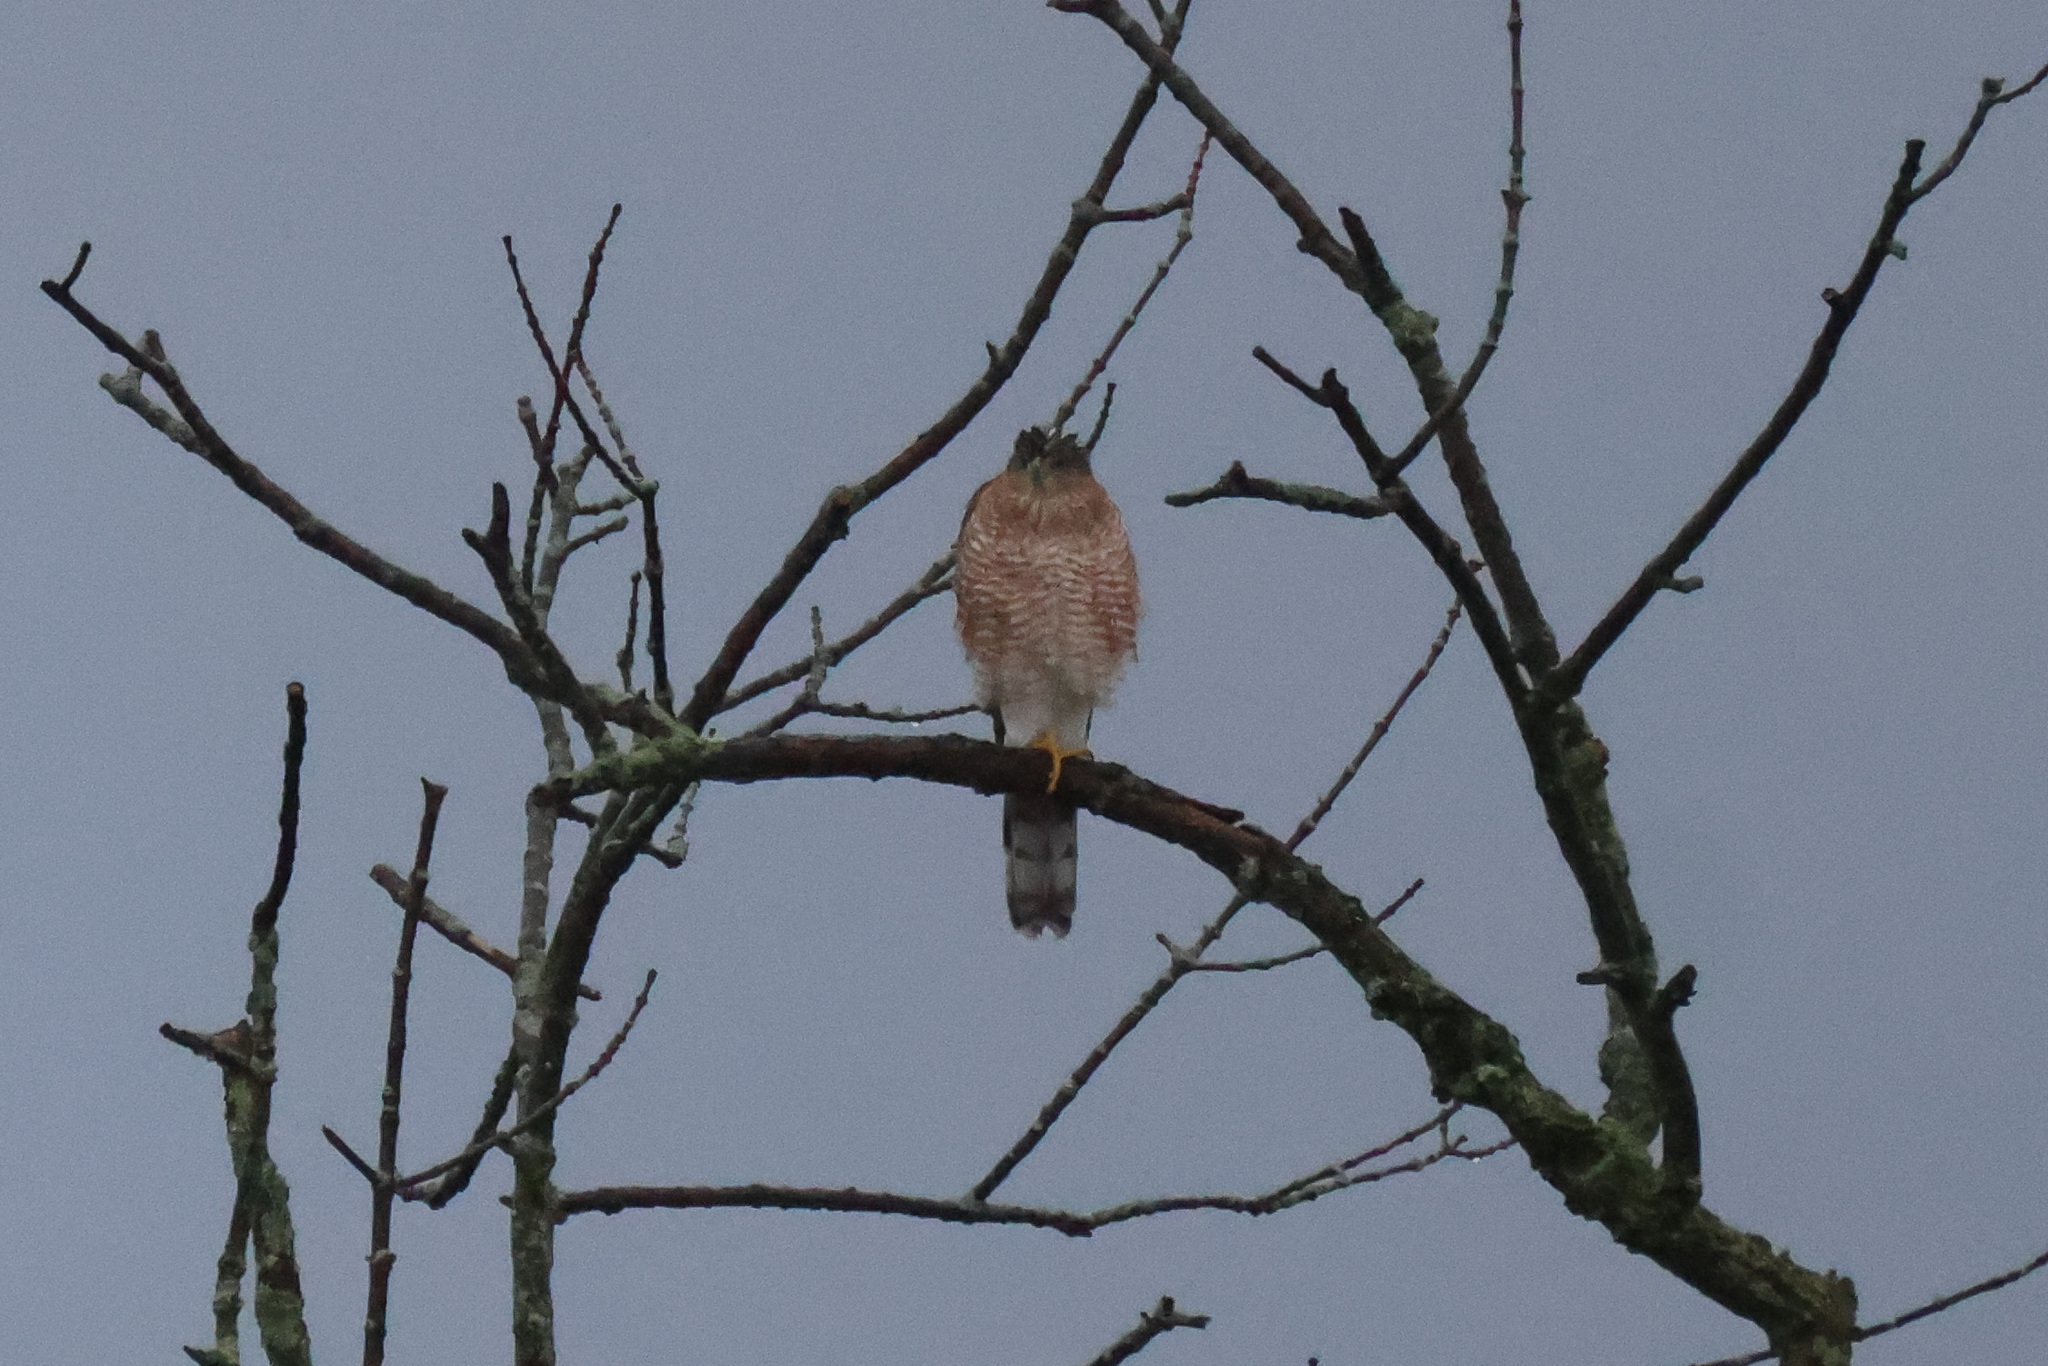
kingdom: Animalia
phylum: Chordata
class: Aves
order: Accipitriformes
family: Accipitridae
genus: Accipiter
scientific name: Accipiter cooperii
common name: Cooper's hawk
